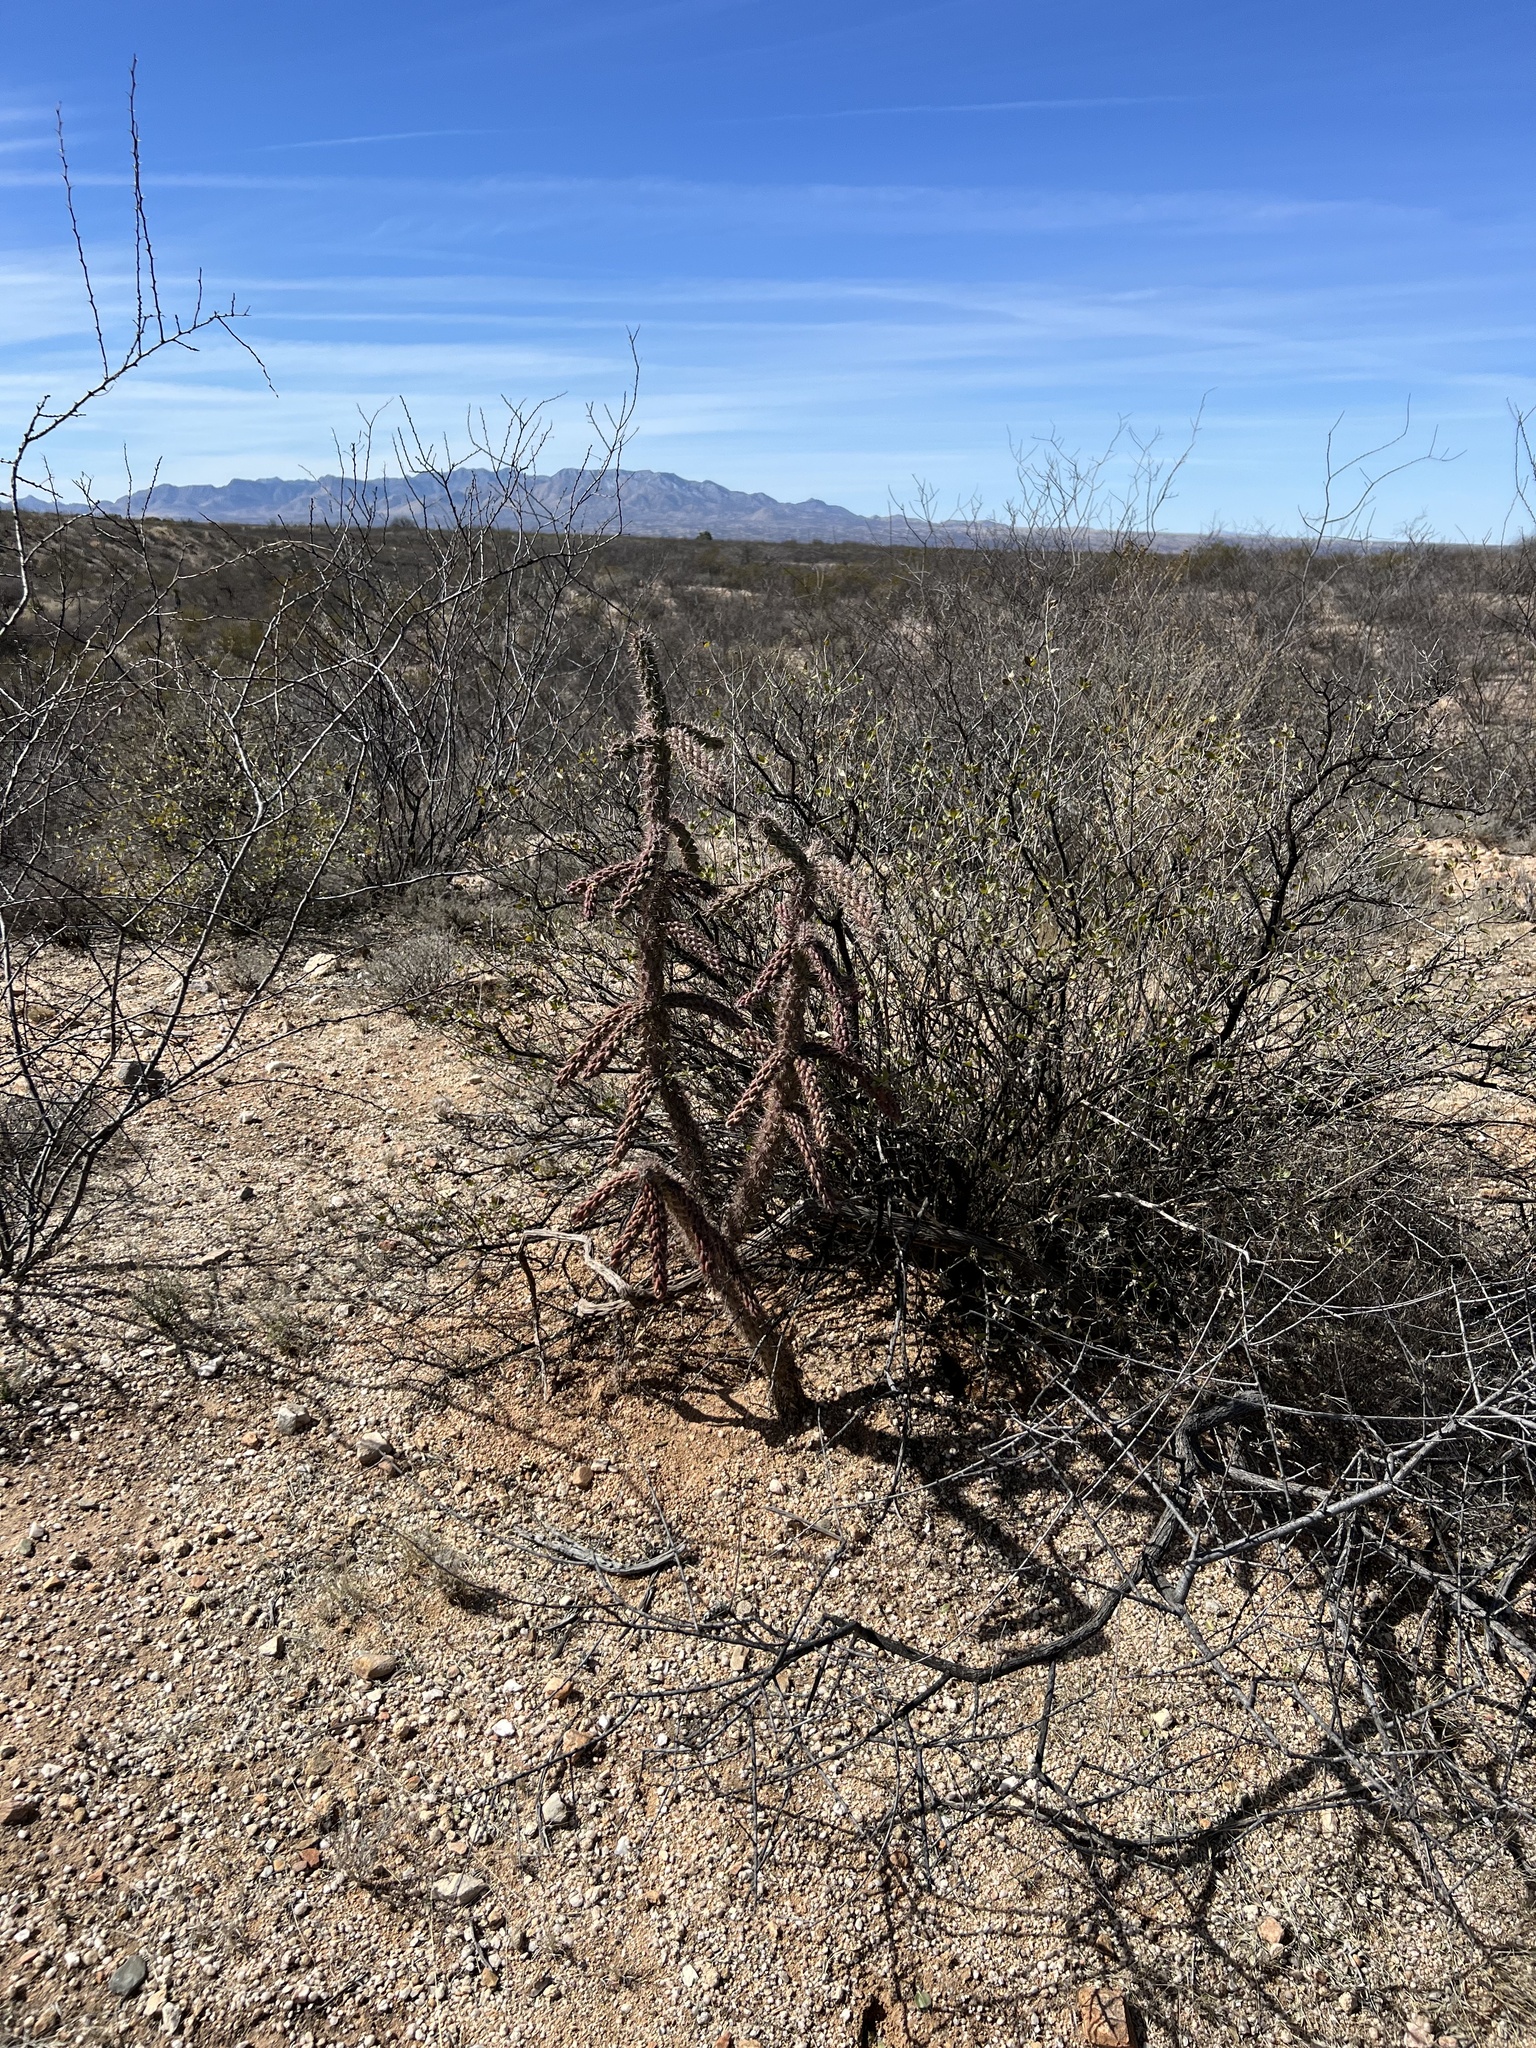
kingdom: Plantae
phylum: Tracheophyta
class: Magnoliopsida
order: Caryophyllales
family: Cactaceae
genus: Cylindropuntia
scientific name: Cylindropuntia imbricata
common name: Candelabrum cactus
